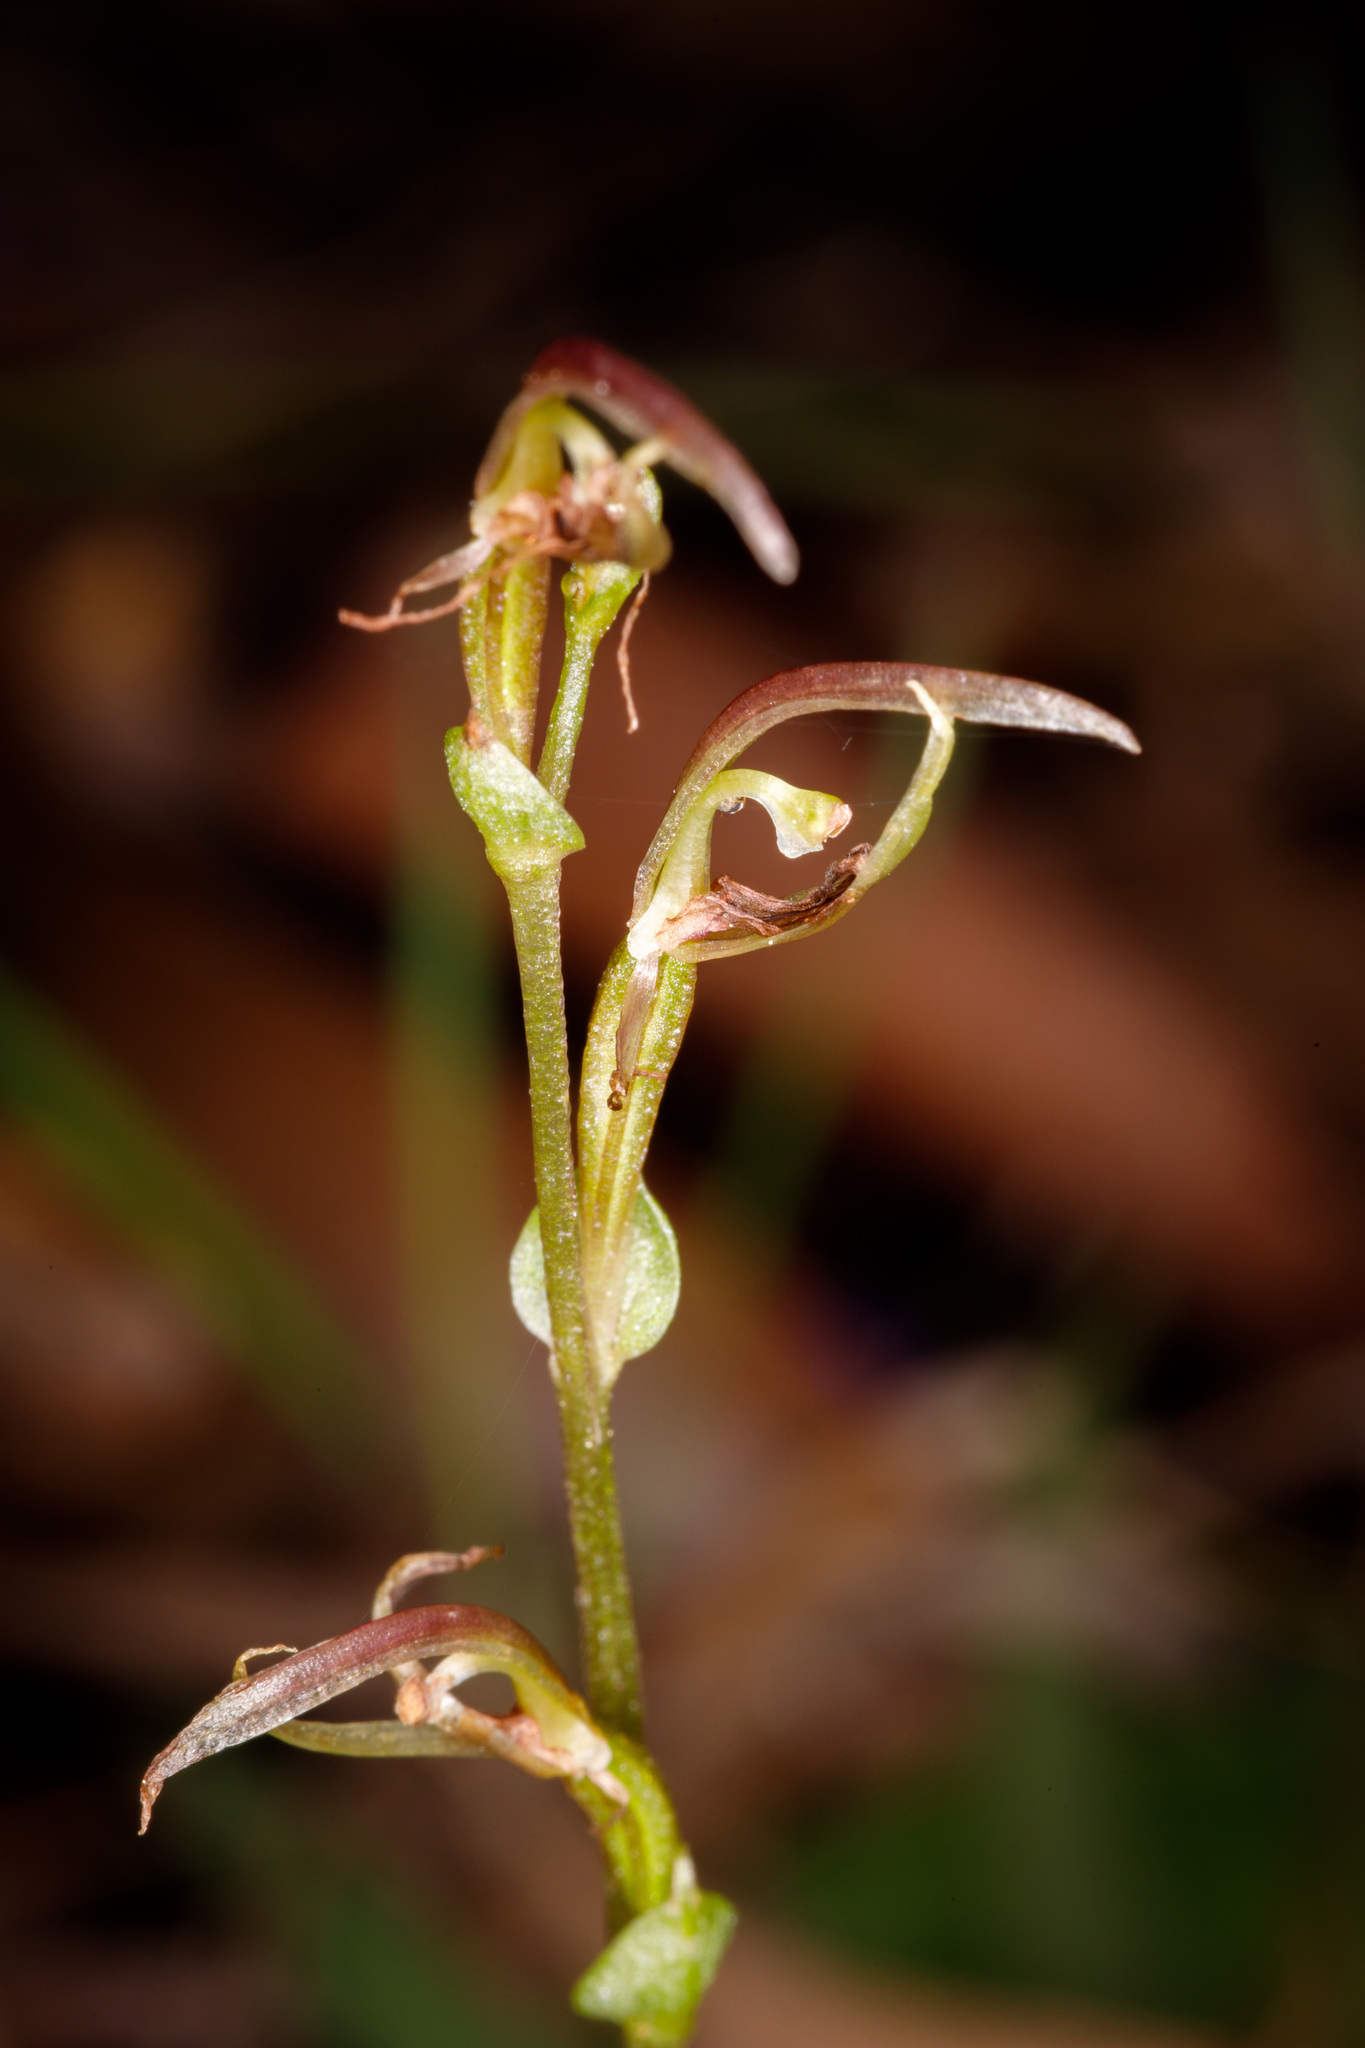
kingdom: Plantae
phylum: Tracheophyta
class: Liliopsida
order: Asparagales
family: Orchidaceae
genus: Cyrtostylis
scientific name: Cyrtostylis huegelii
